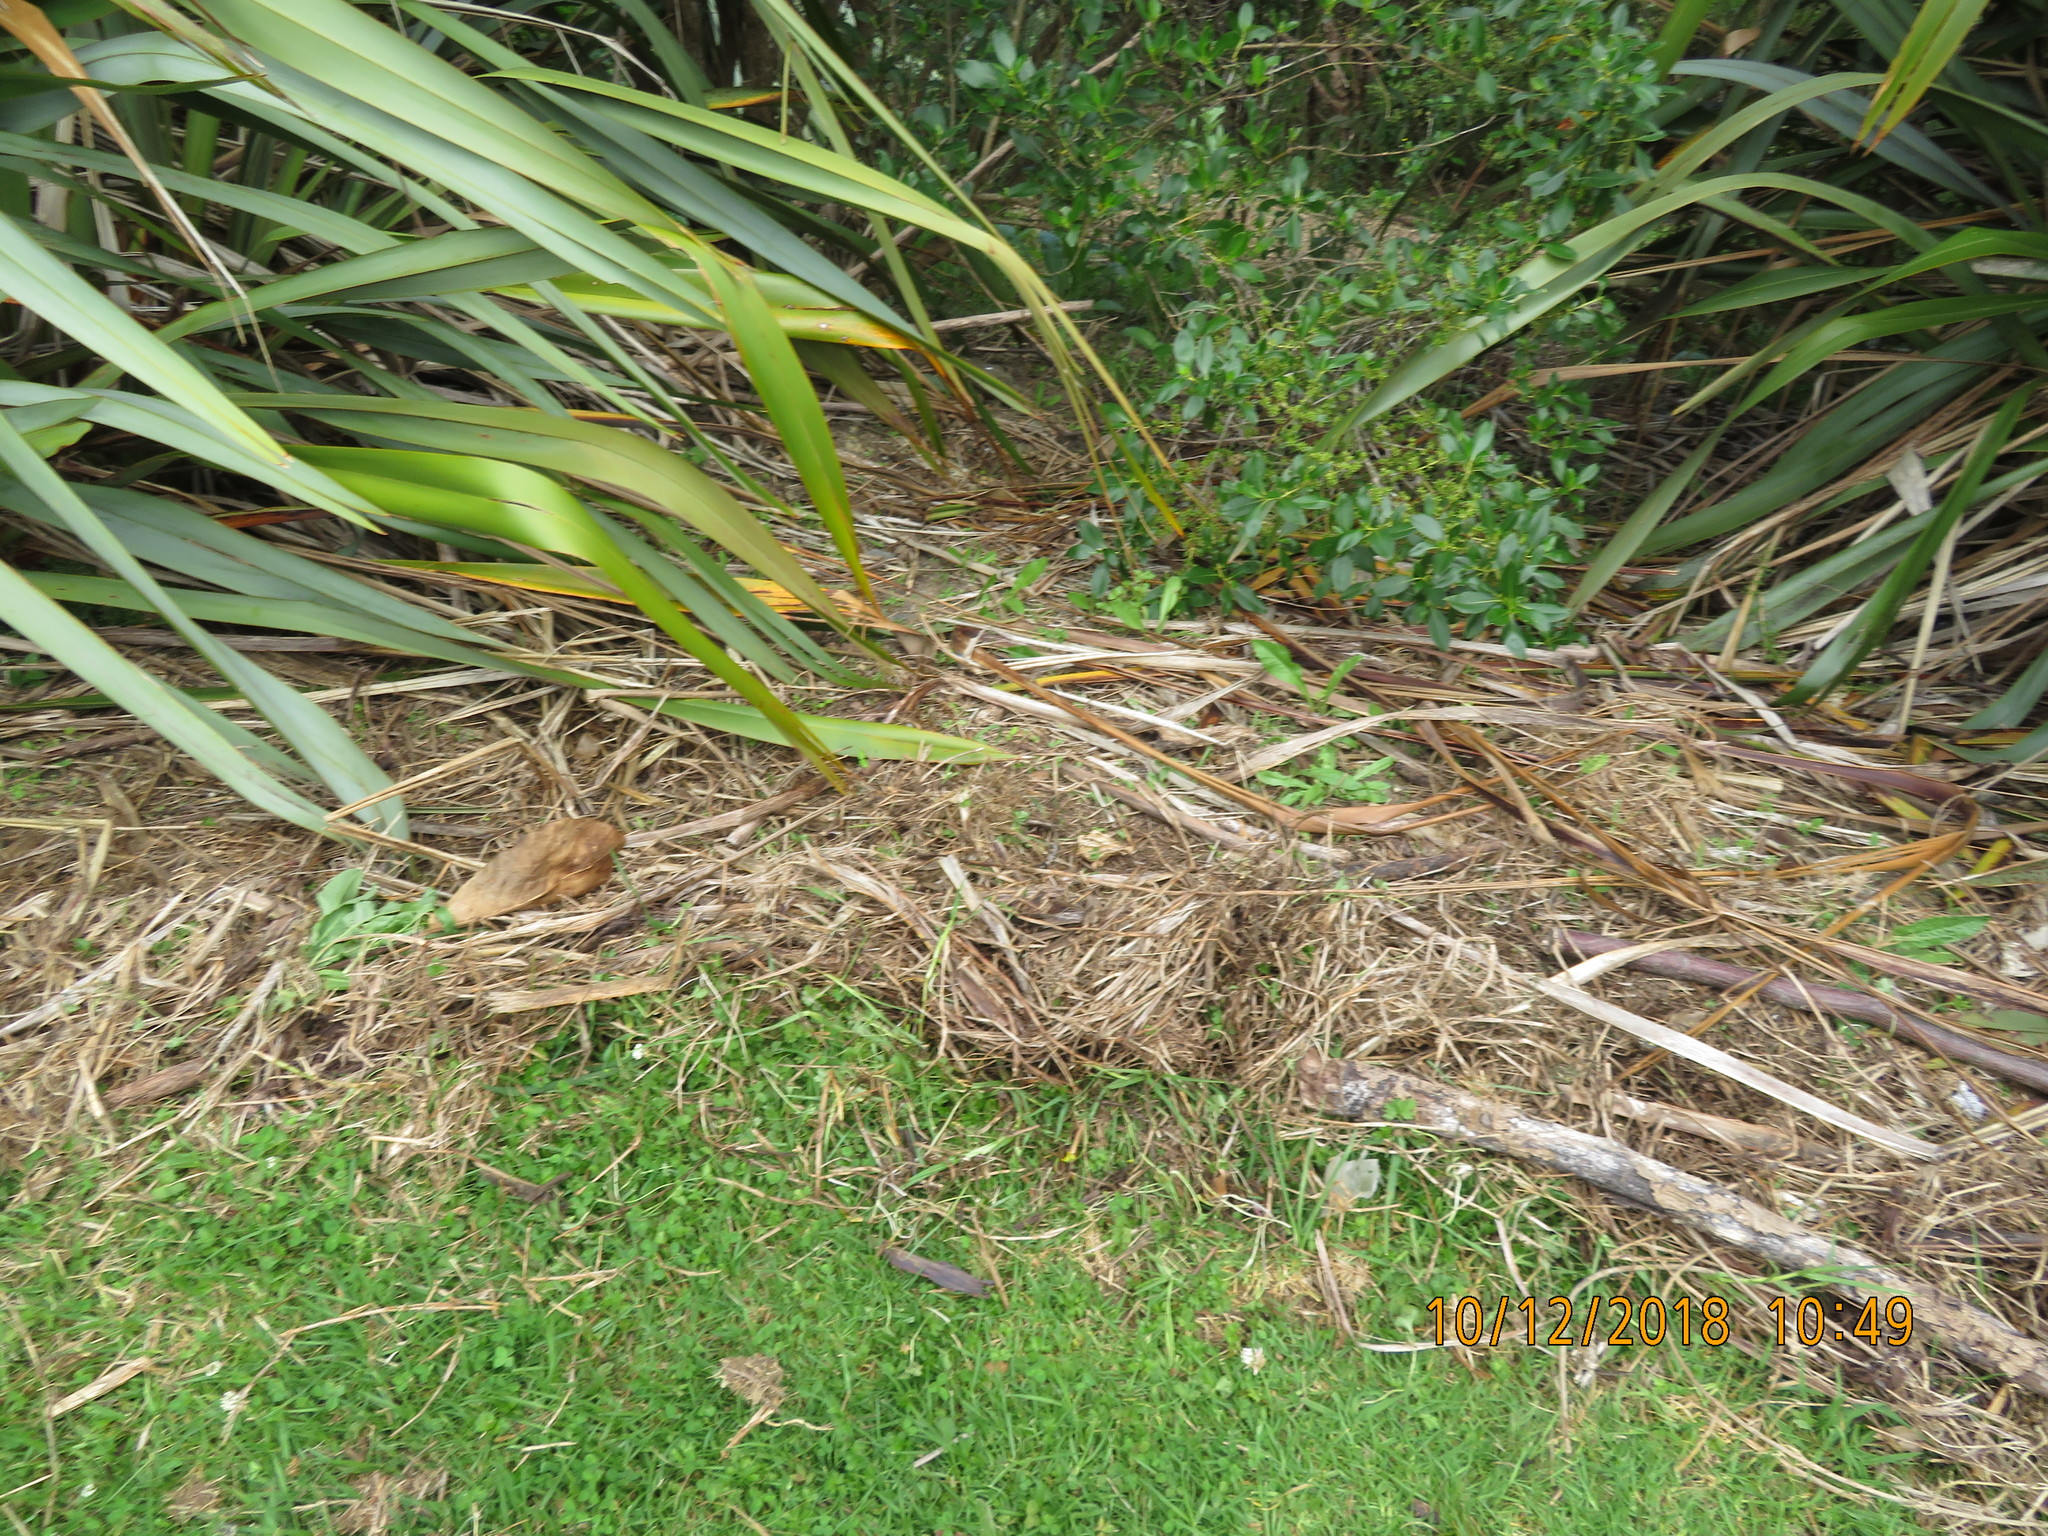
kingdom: Plantae
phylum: Tracheophyta
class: Magnoliopsida
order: Gentianales
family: Rubiaceae
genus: Coprosma
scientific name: Coprosma robusta
